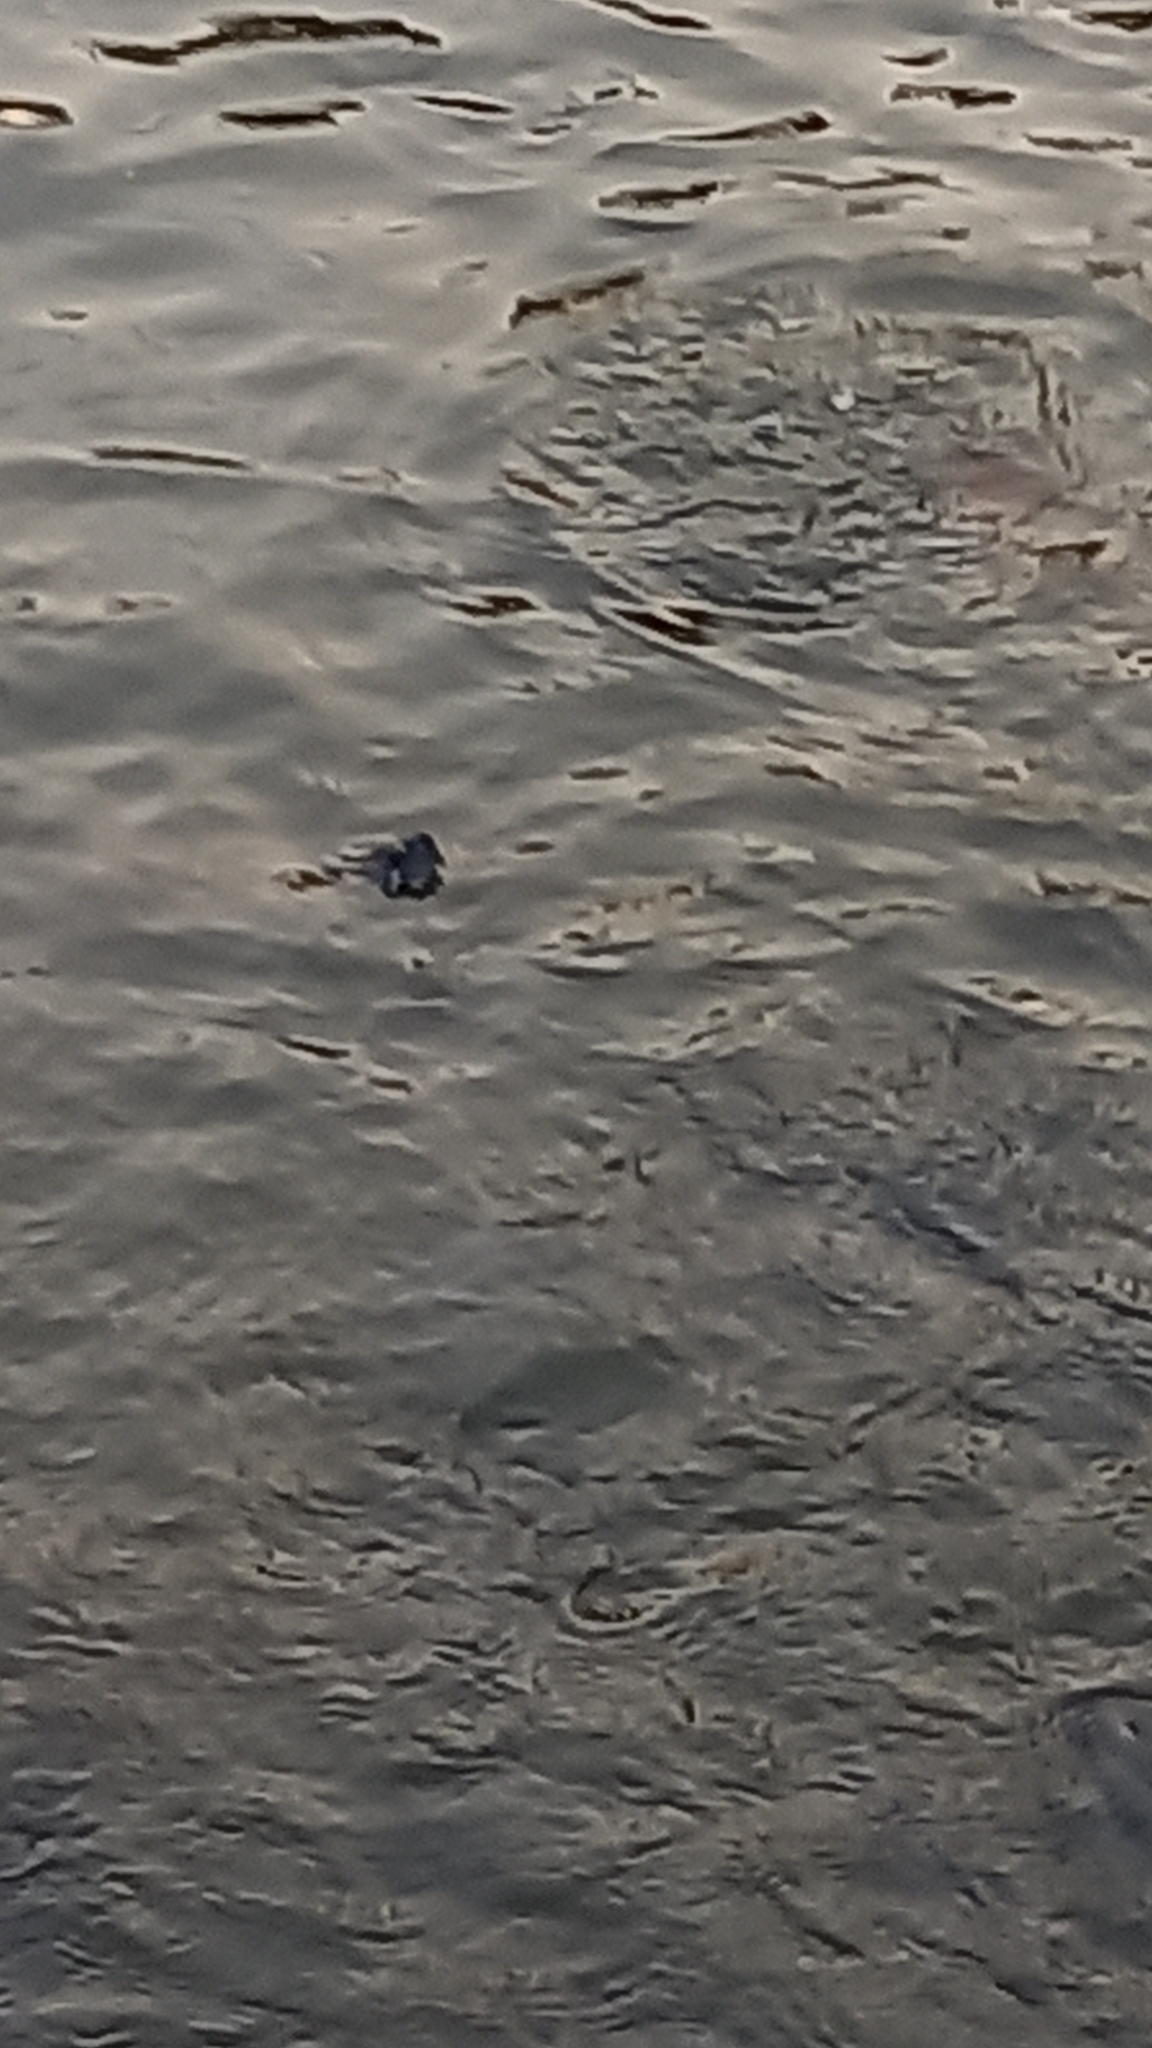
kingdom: Animalia
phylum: Chordata
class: Testudines
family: Emydidae
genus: Trachemys
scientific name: Trachemys scripta
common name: Slider
